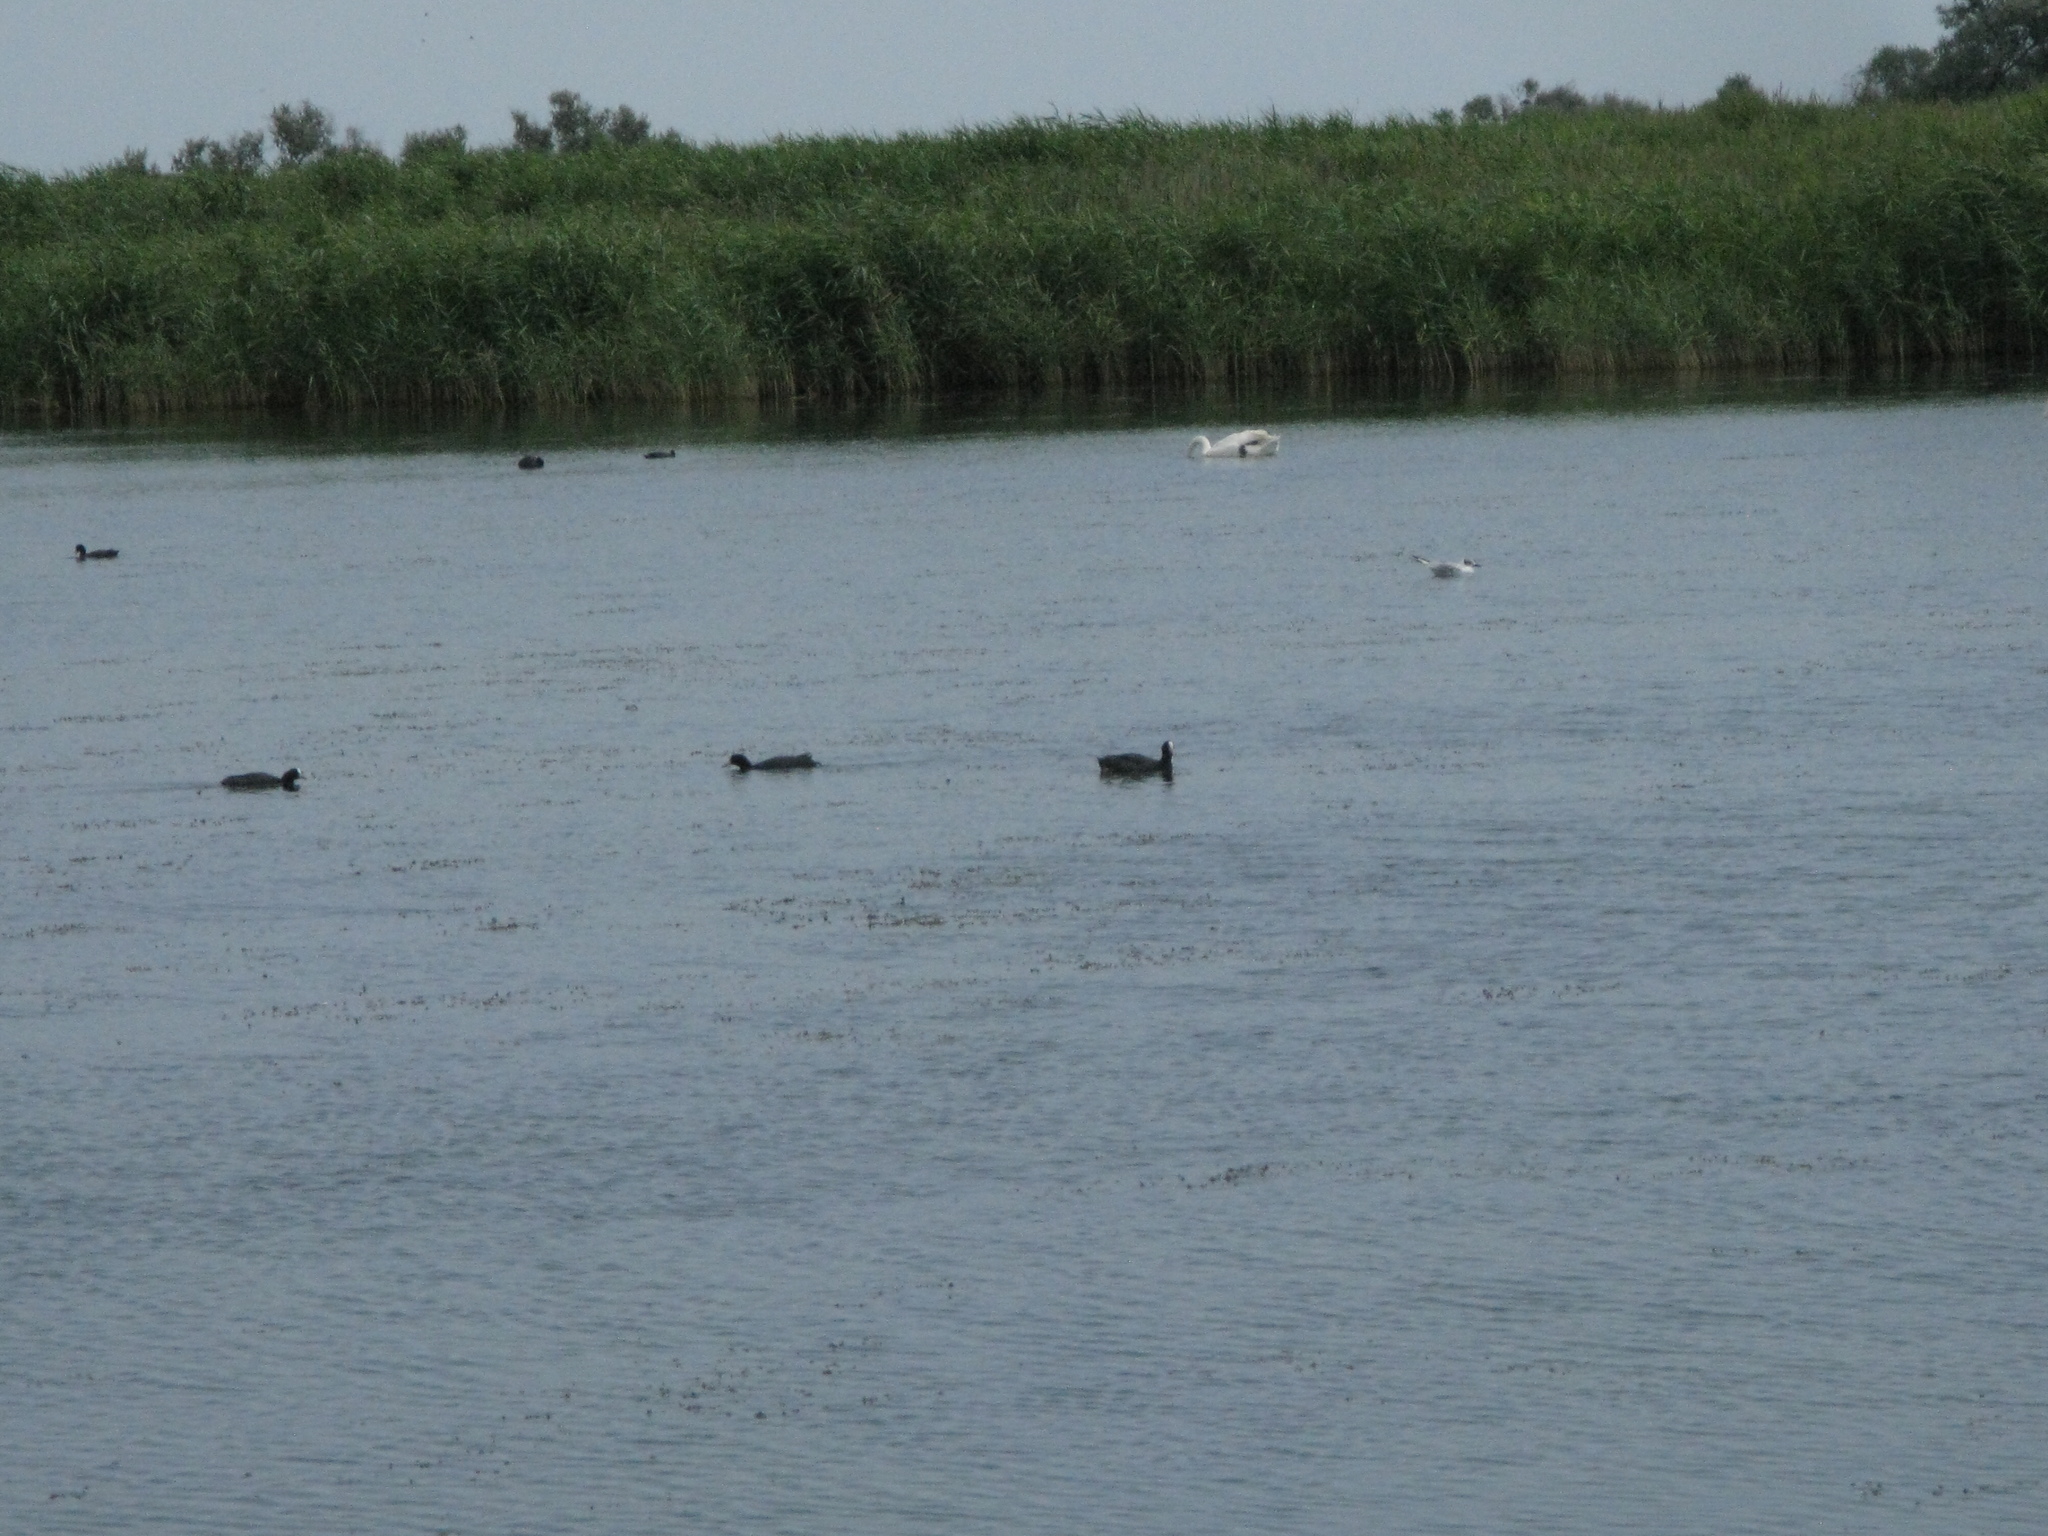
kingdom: Animalia
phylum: Chordata
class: Aves
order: Gruiformes
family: Rallidae
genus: Fulica
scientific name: Fulica atra
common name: Eurasian coot
